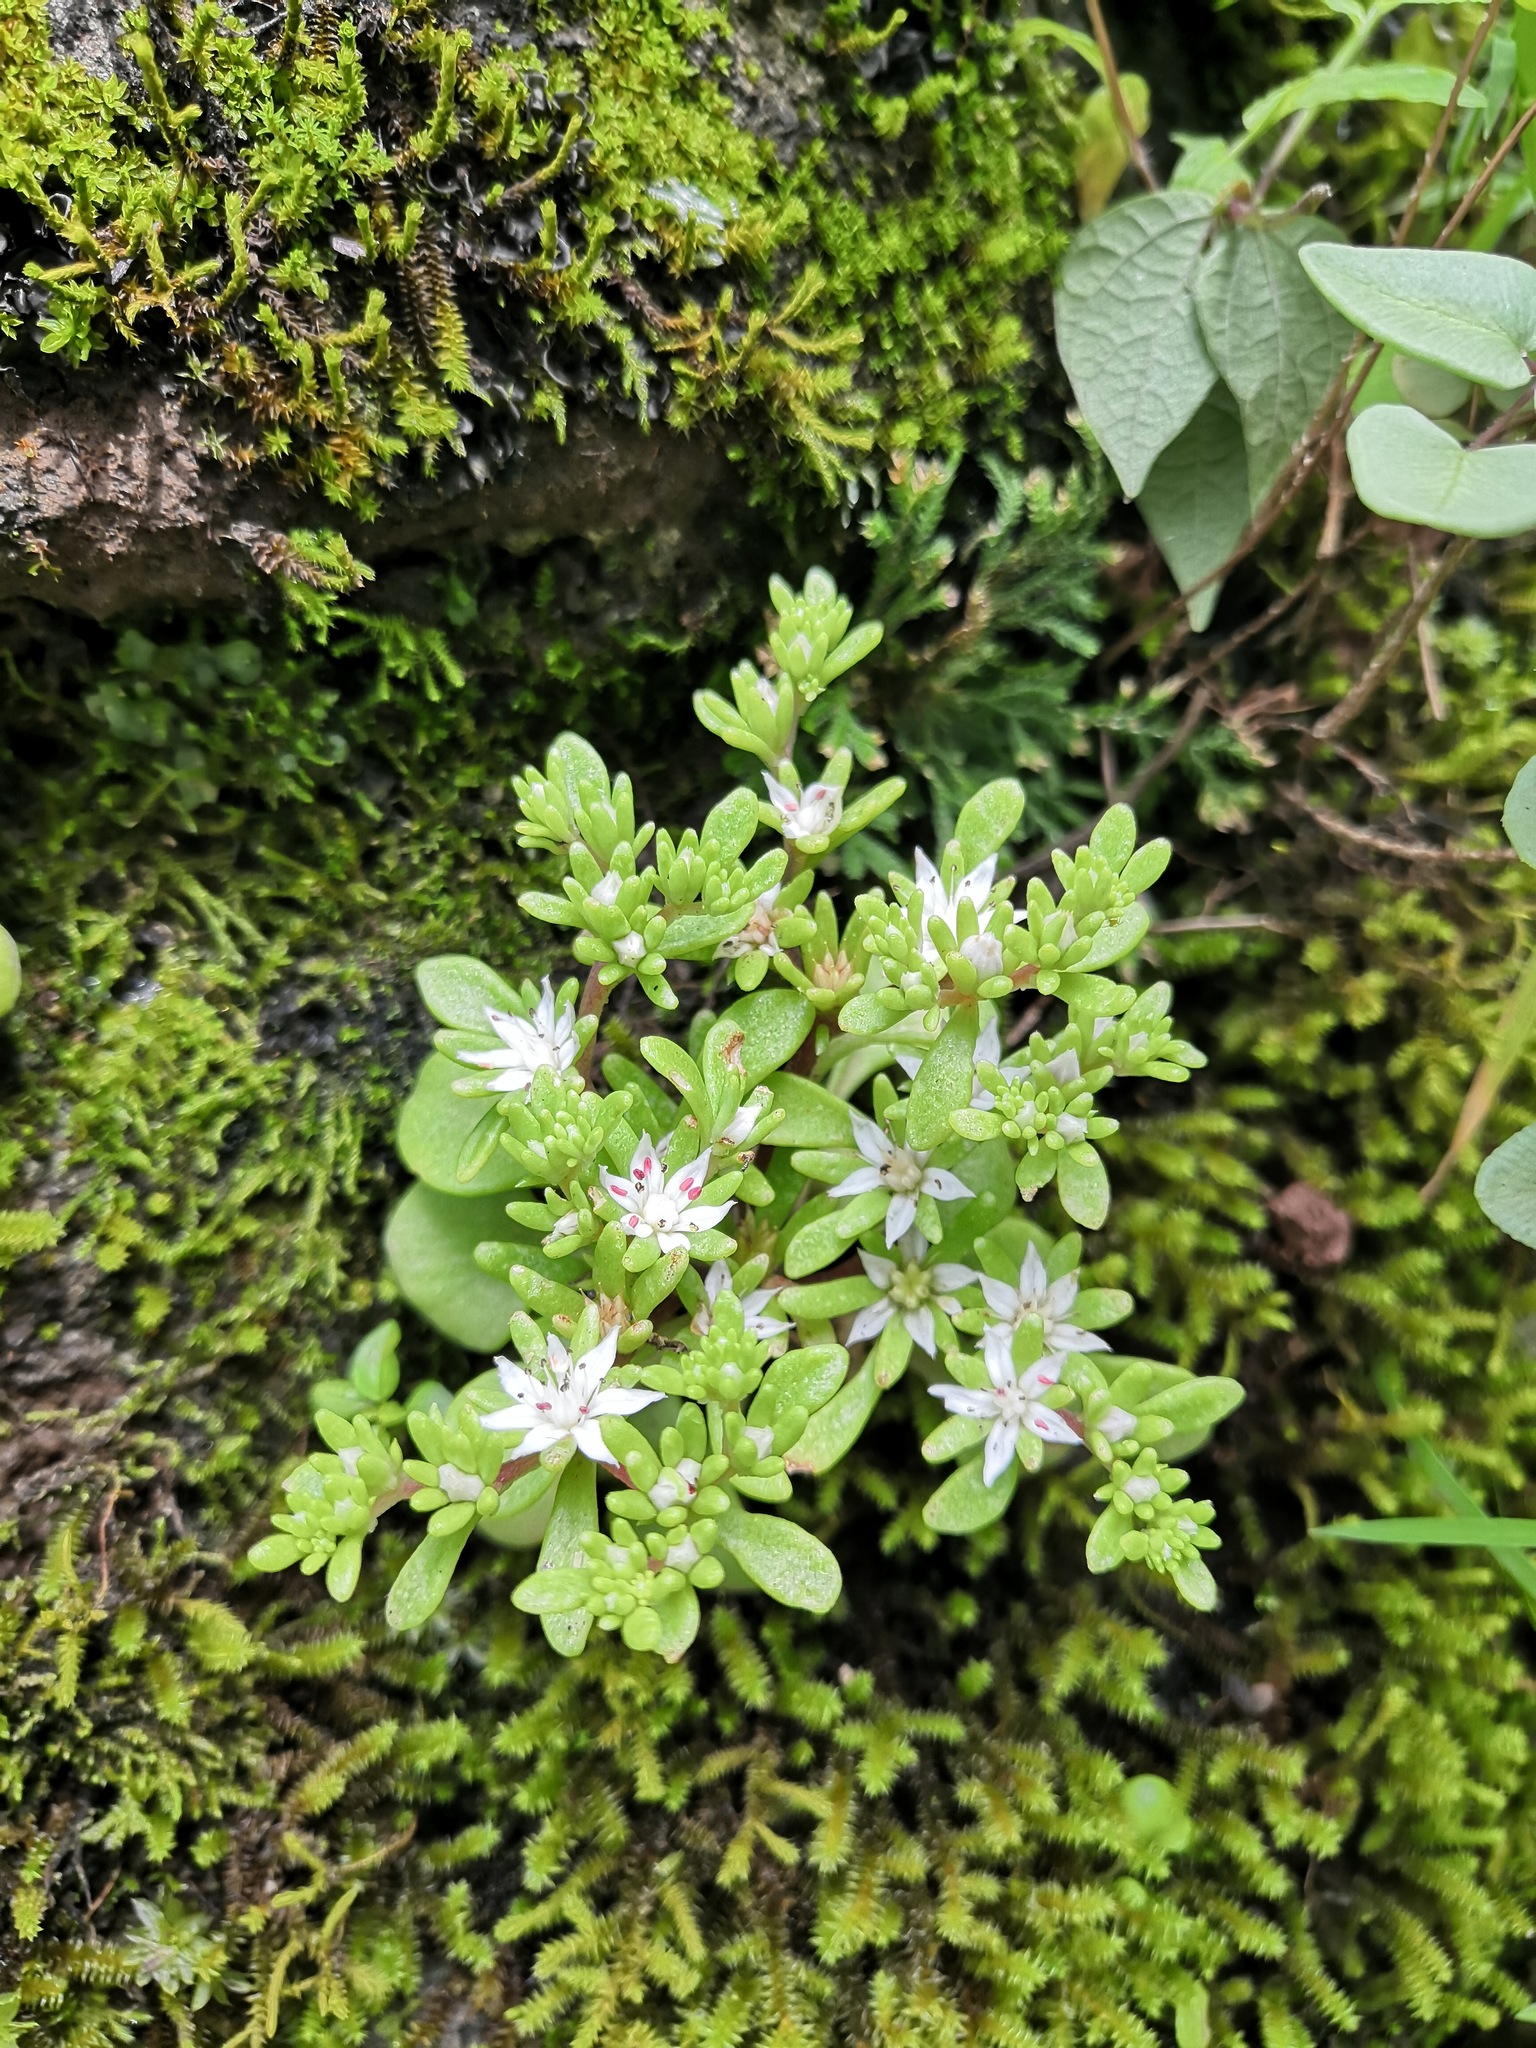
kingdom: Plantae
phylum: Tracheophyta
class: Magnoliopsida
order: Saxifragales
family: Crassulaceae
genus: Sedum
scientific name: Sedum jaliscanum
